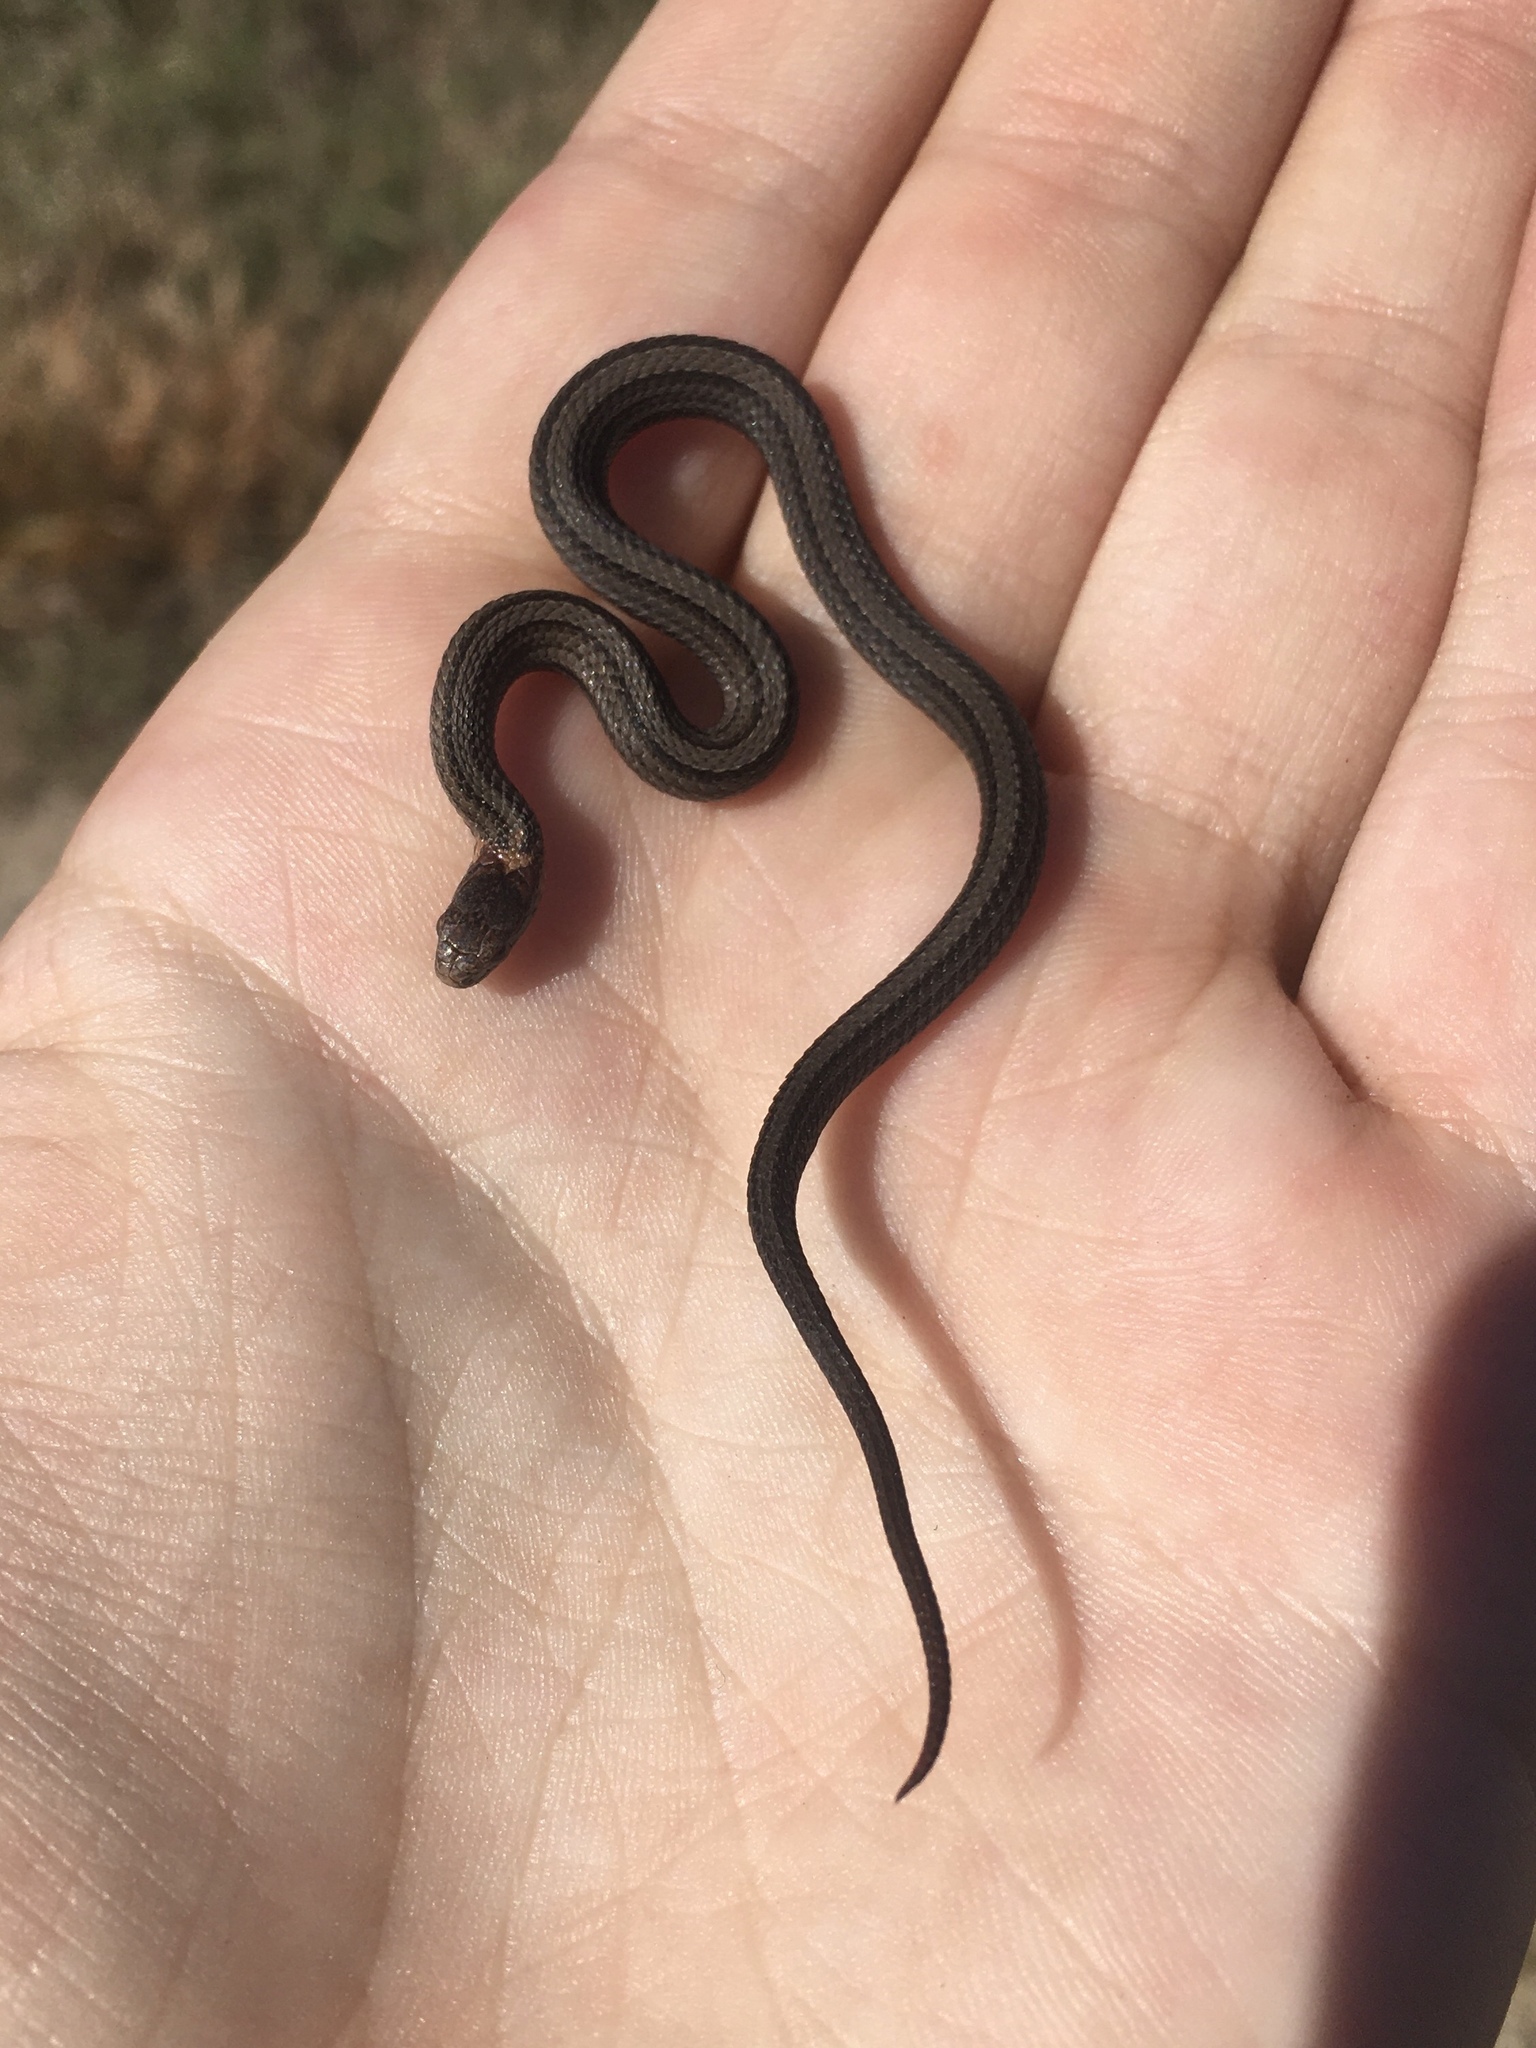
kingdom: Animalia
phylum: Chordata
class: Squamata
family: Colubridae
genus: Storeria
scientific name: Storeria occipitomaculata
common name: Redbelly snake
